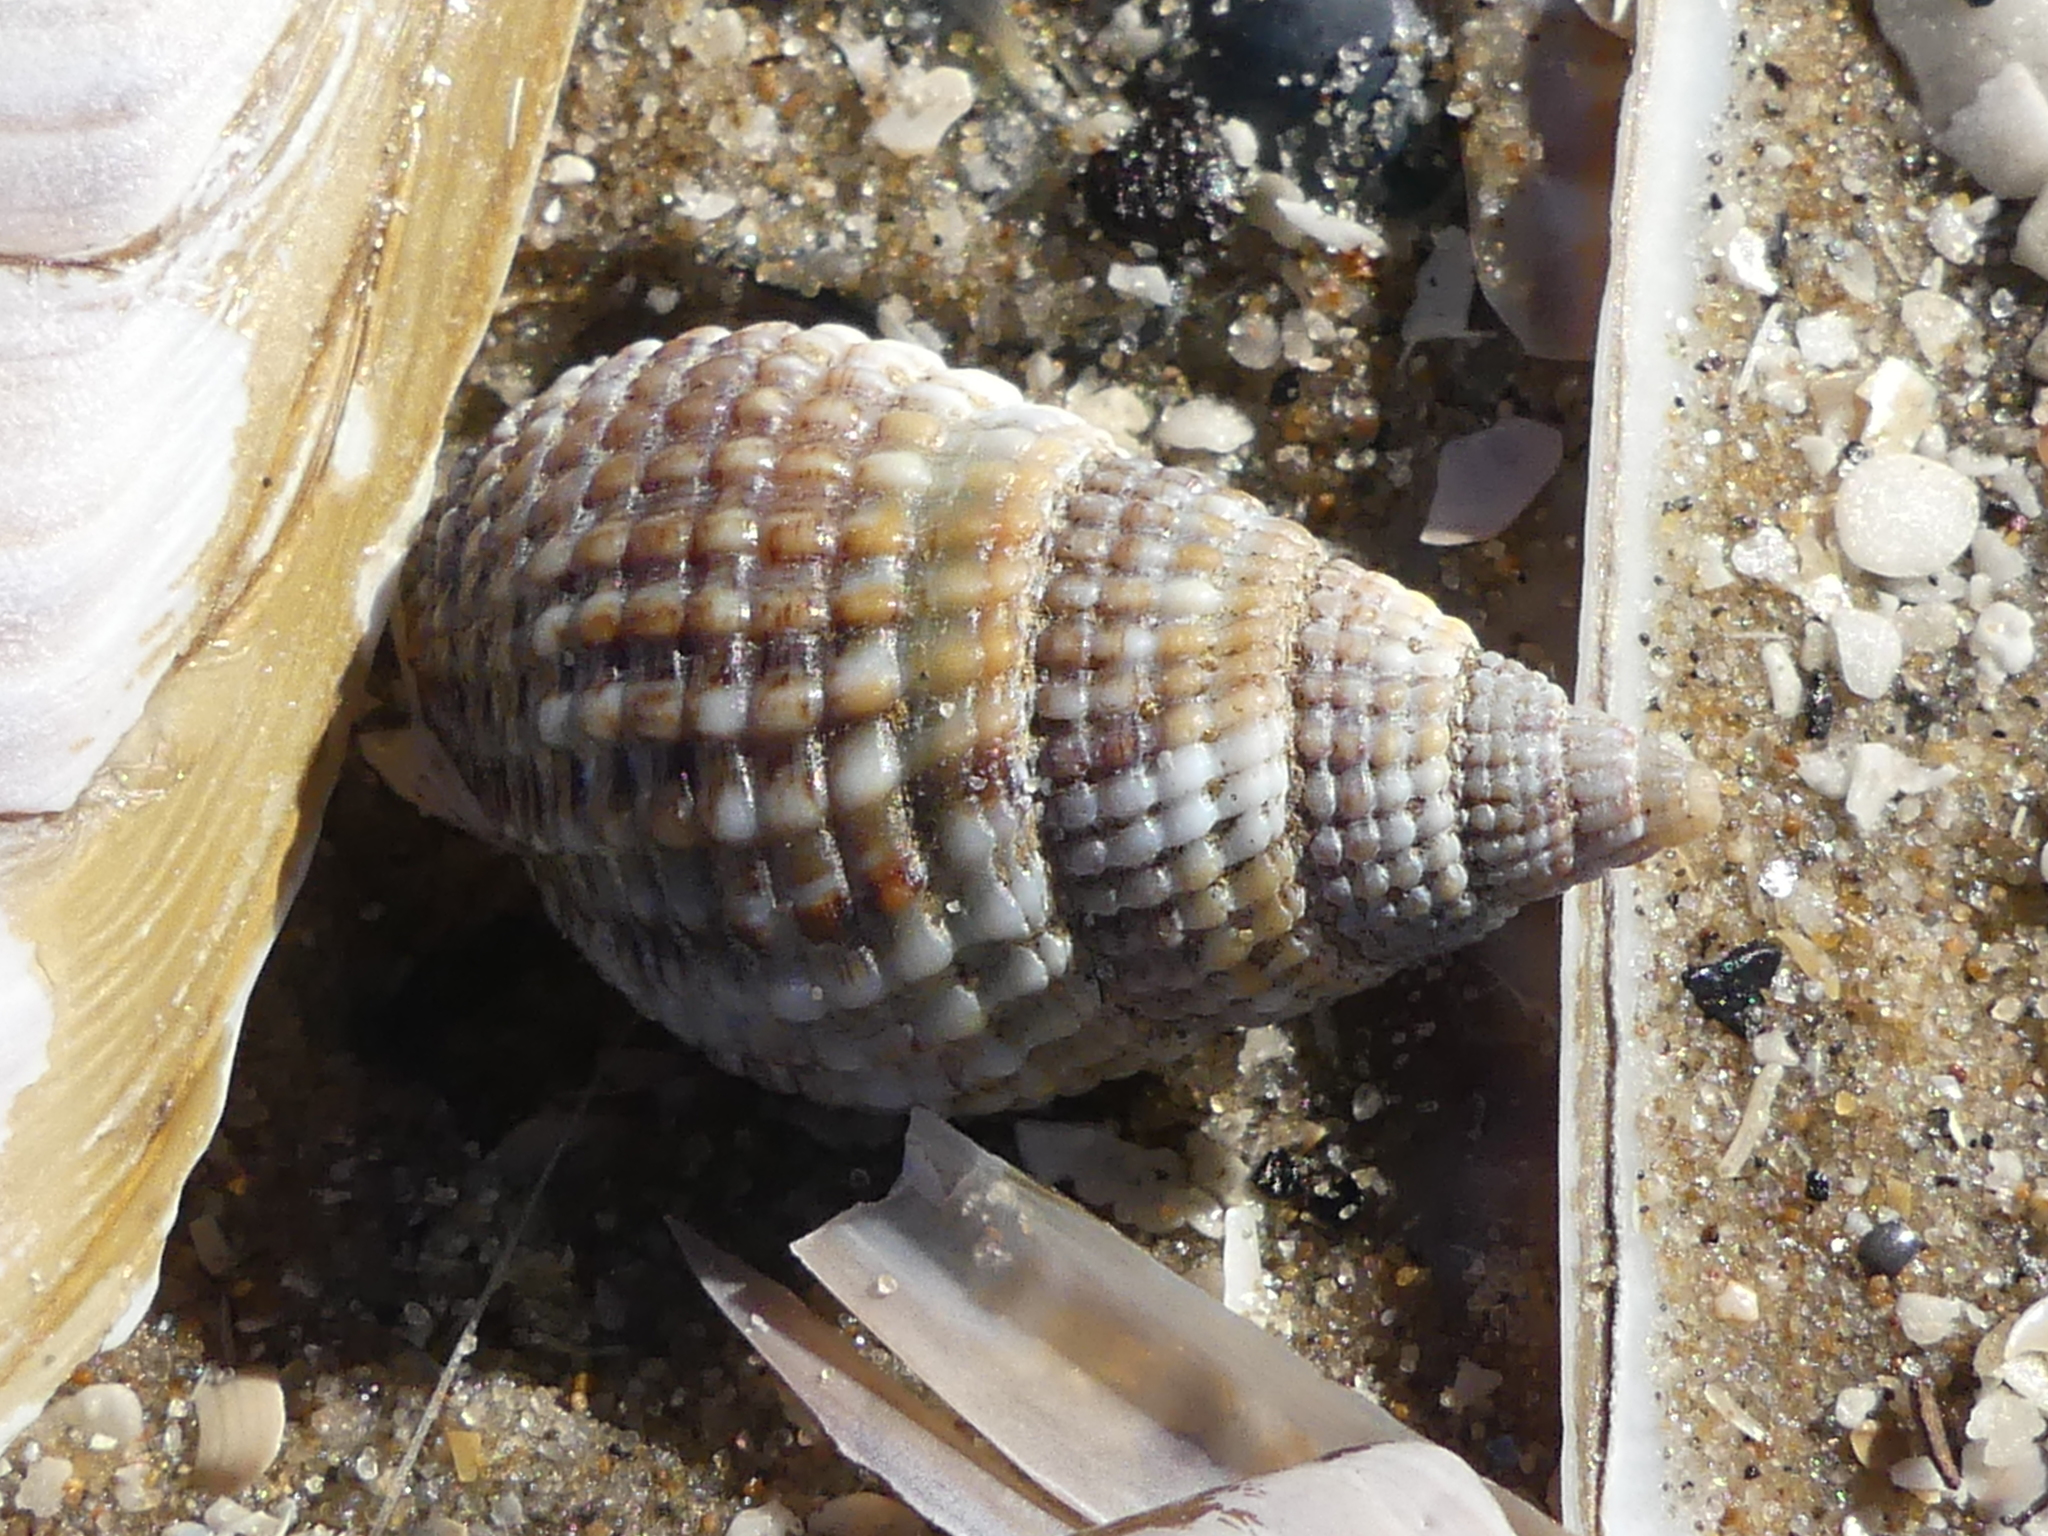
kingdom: Animalia
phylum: Mollusca
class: Gastropoda
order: Neogastropoda
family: Nassariidae
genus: Tritia
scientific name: Tritia reticulata
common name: Netted dog whelk
